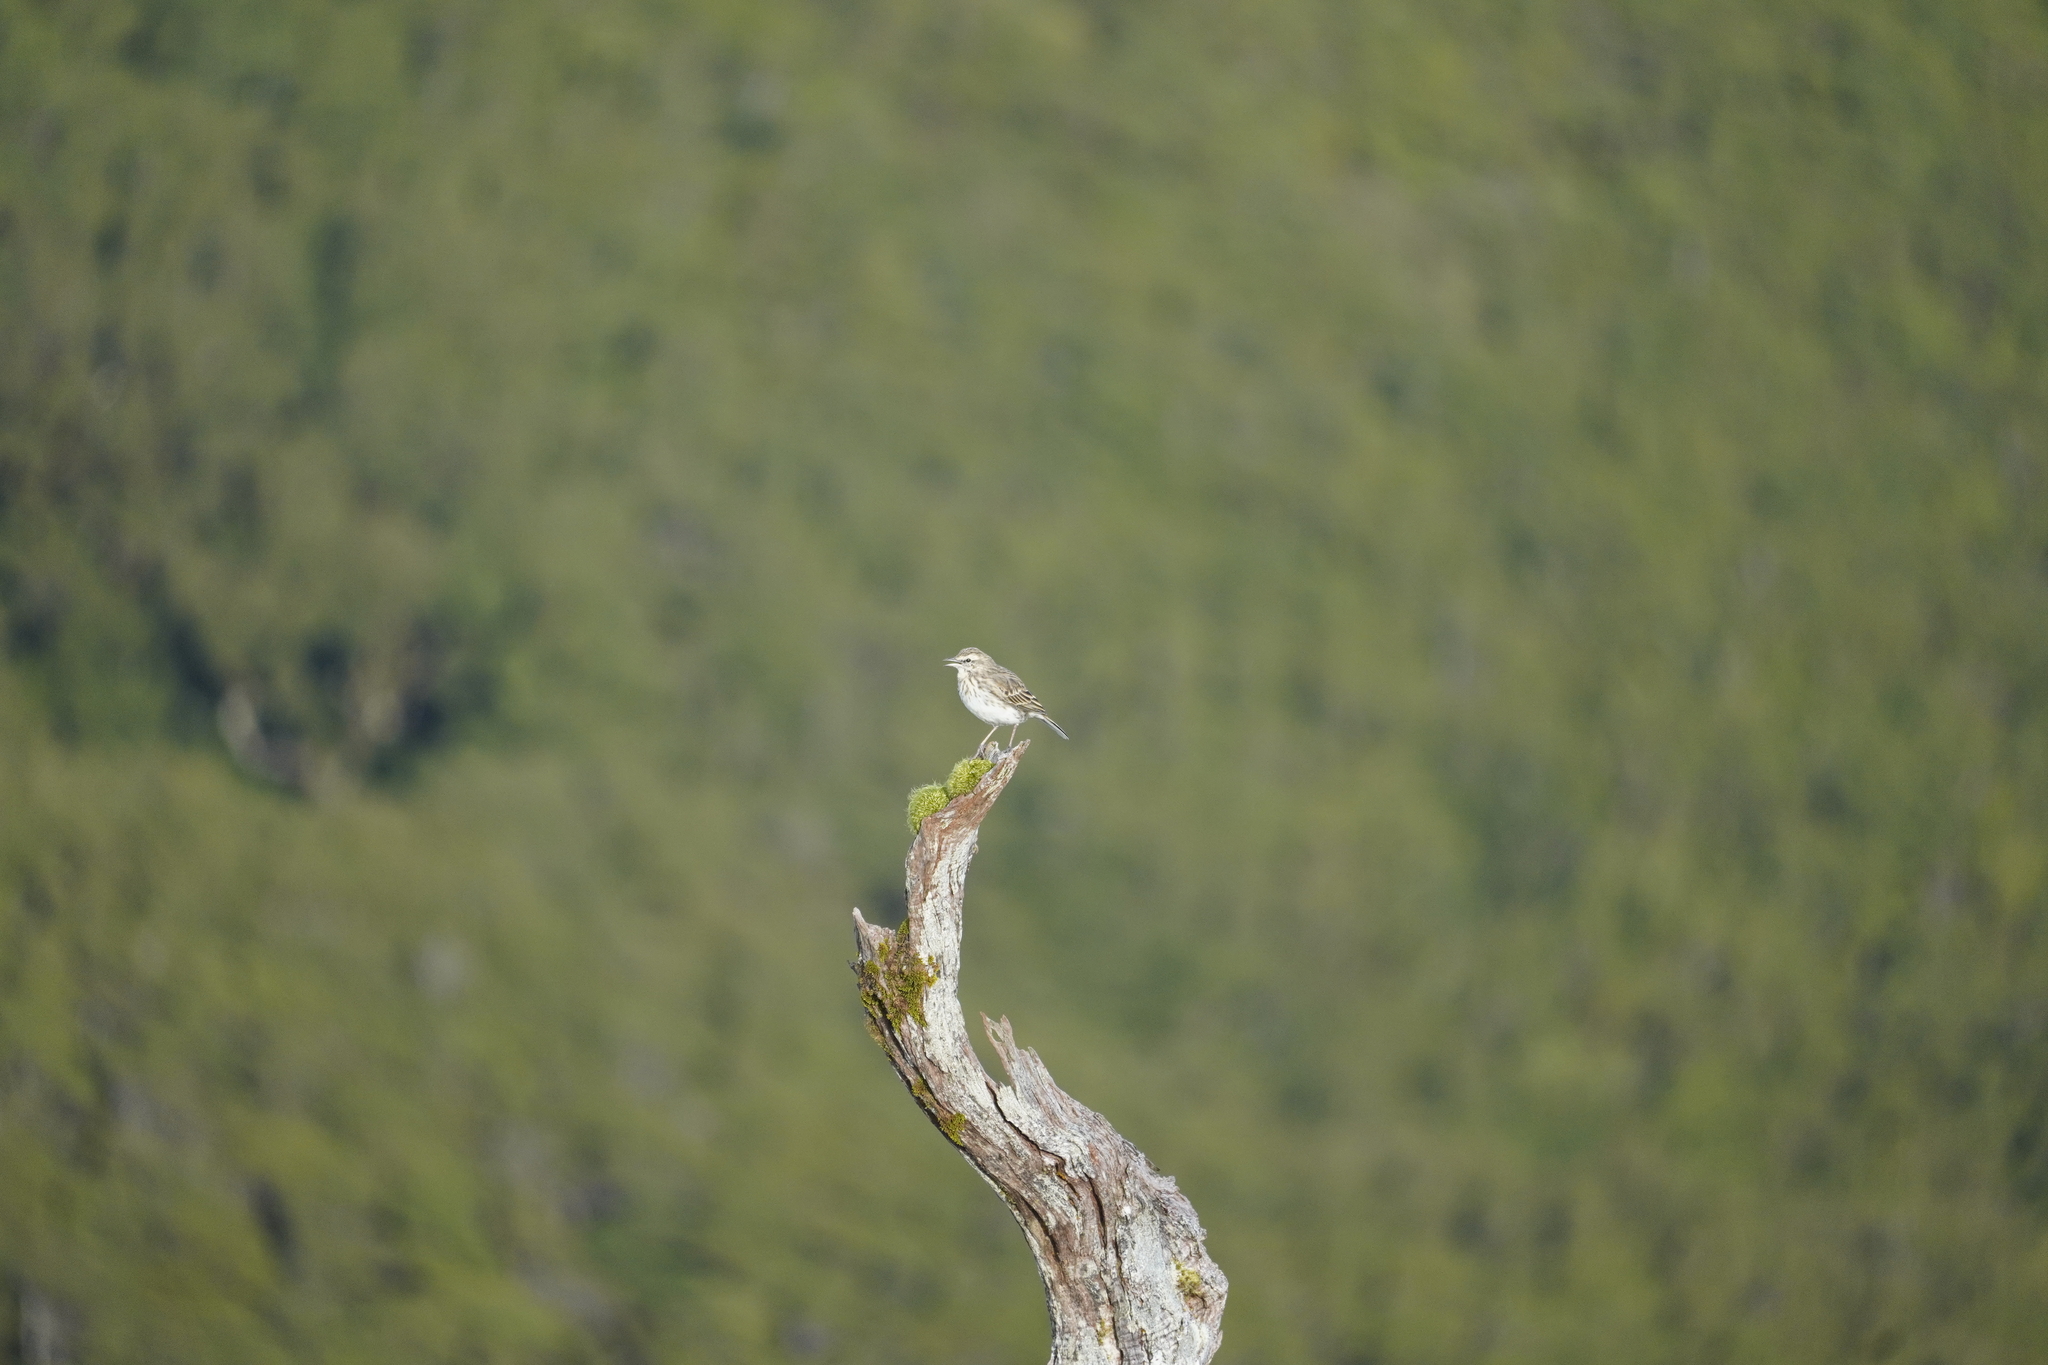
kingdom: Animalia
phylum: Chordata
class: Aves
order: Passeriformes
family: Motacillidae
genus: Anthus
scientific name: Anthus novaeseelandiae
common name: New zealand pipit
